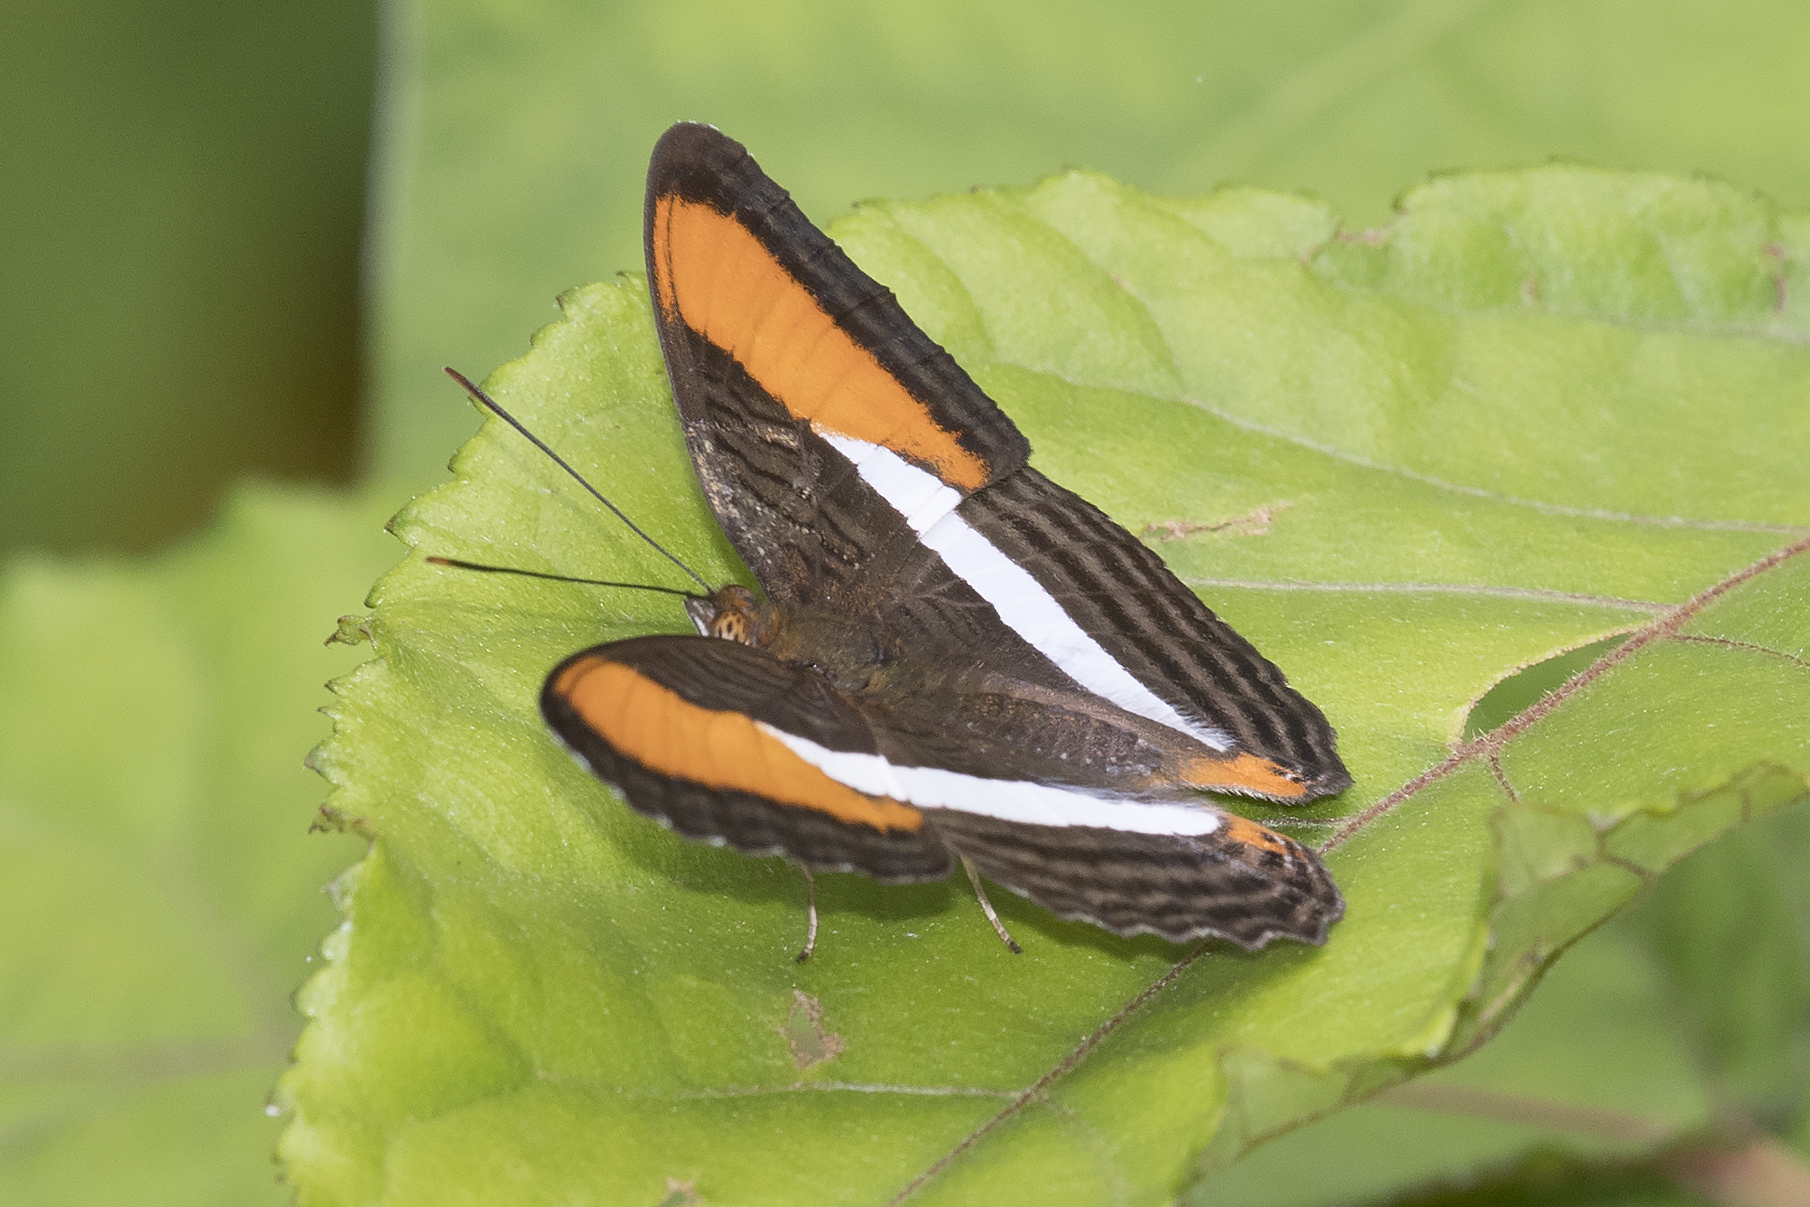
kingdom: Animalia
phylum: Arthropoda
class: Insecta
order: Lepidoptera
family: Nymphalidae
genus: Limenitis
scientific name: Limenitis cytherea
